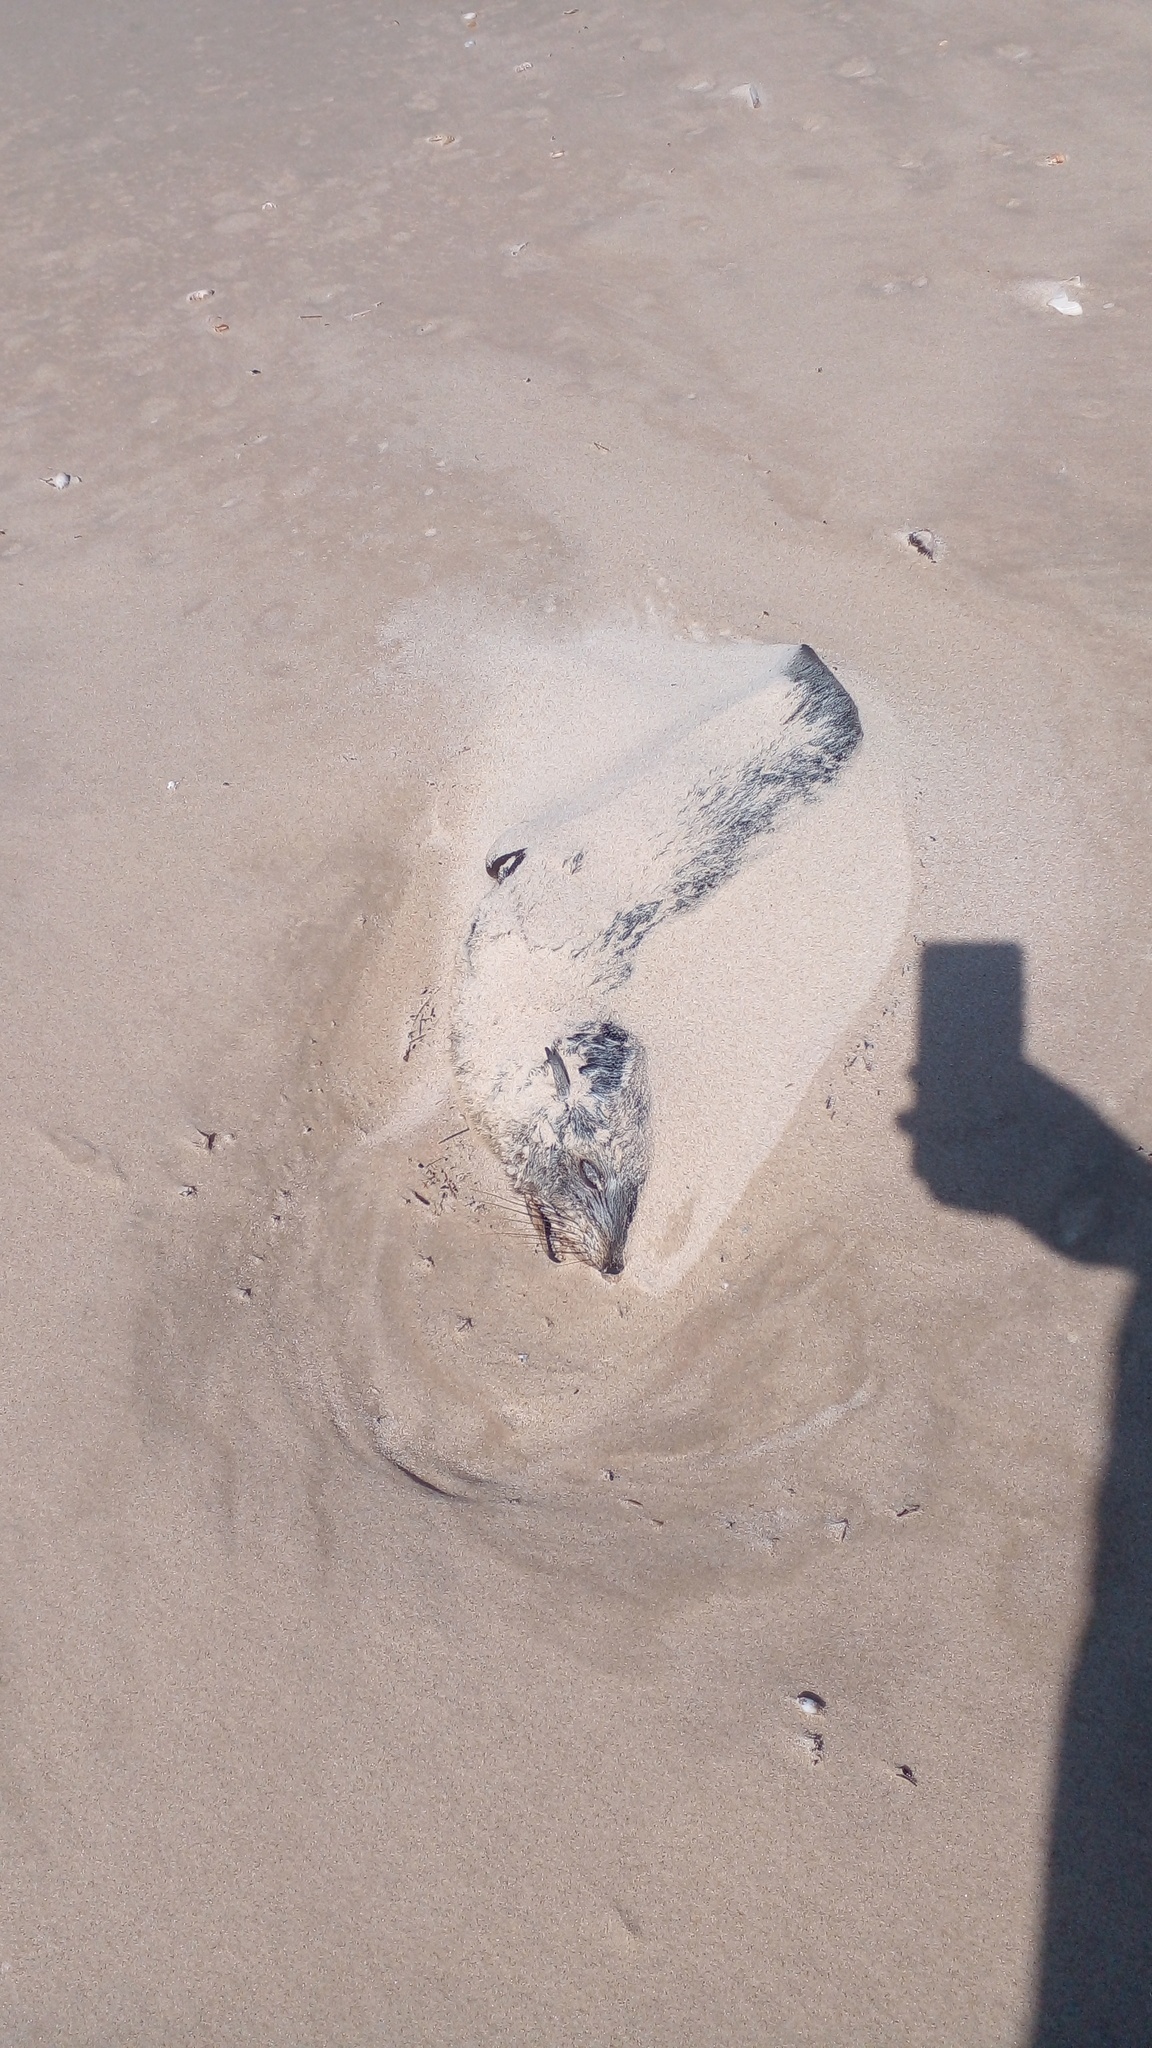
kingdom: Animalia
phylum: Chordata
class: Mammalia
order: Carnivora
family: Otariidae
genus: Arctocephalus
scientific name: Arctocephalus australis
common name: South american fur seal
